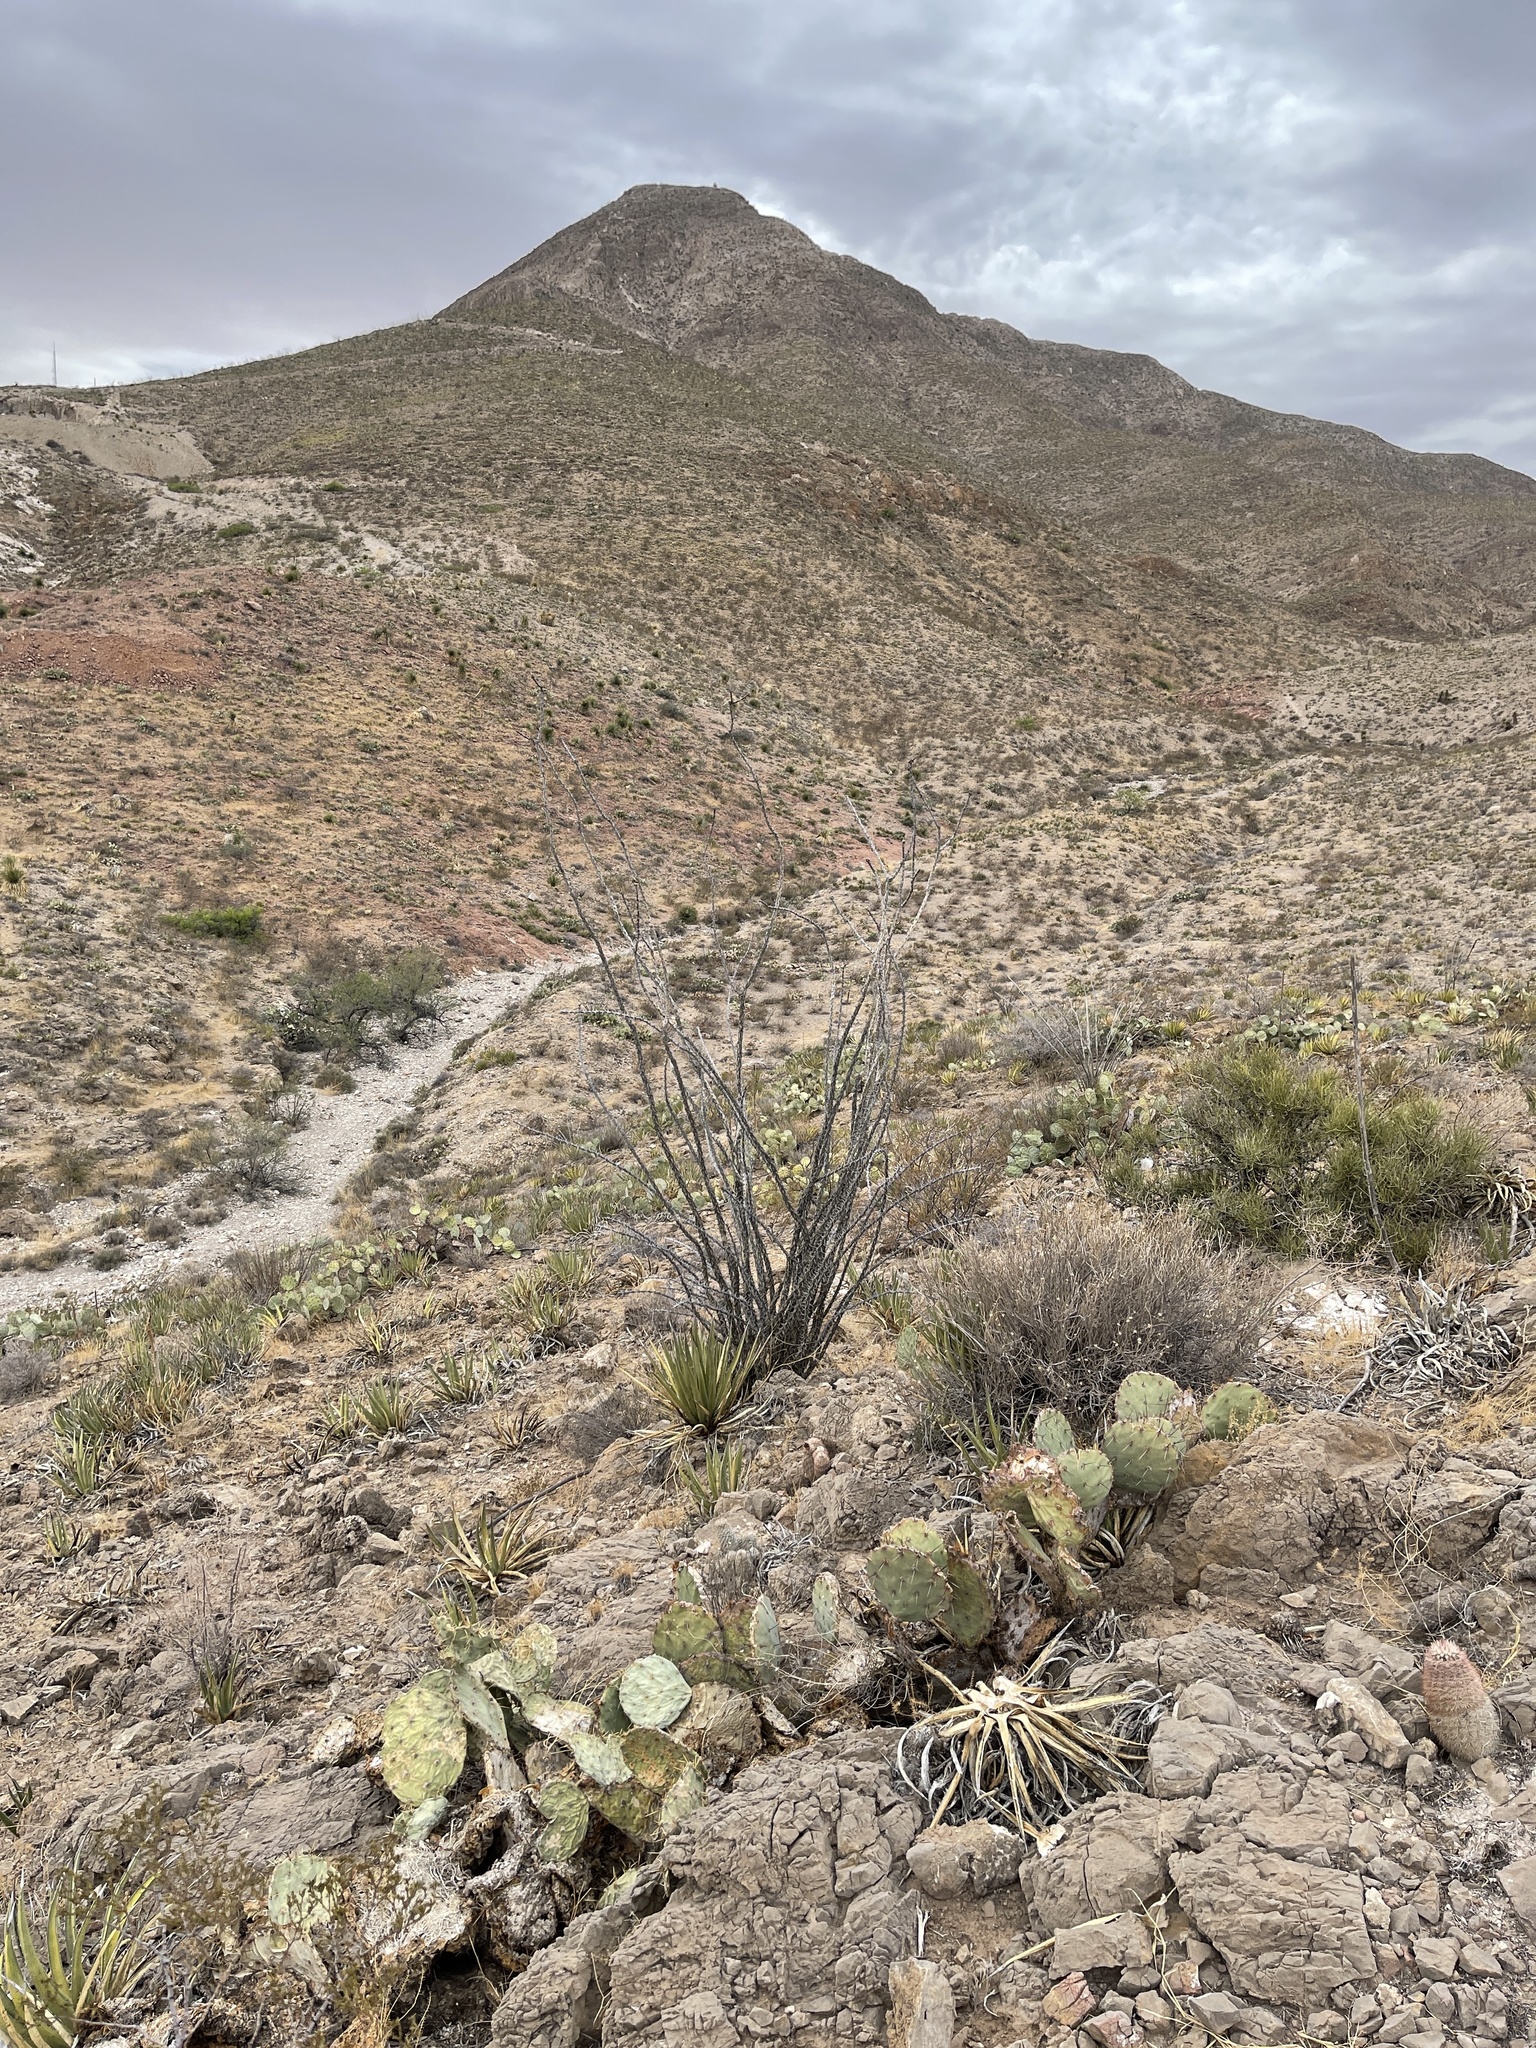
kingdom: Plantae
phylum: Tracheophyta
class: Magnoliopsida
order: Ericales
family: Fouquieriaceae
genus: Fouquieria
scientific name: Fouquieria splendens
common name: Vine-cactus
